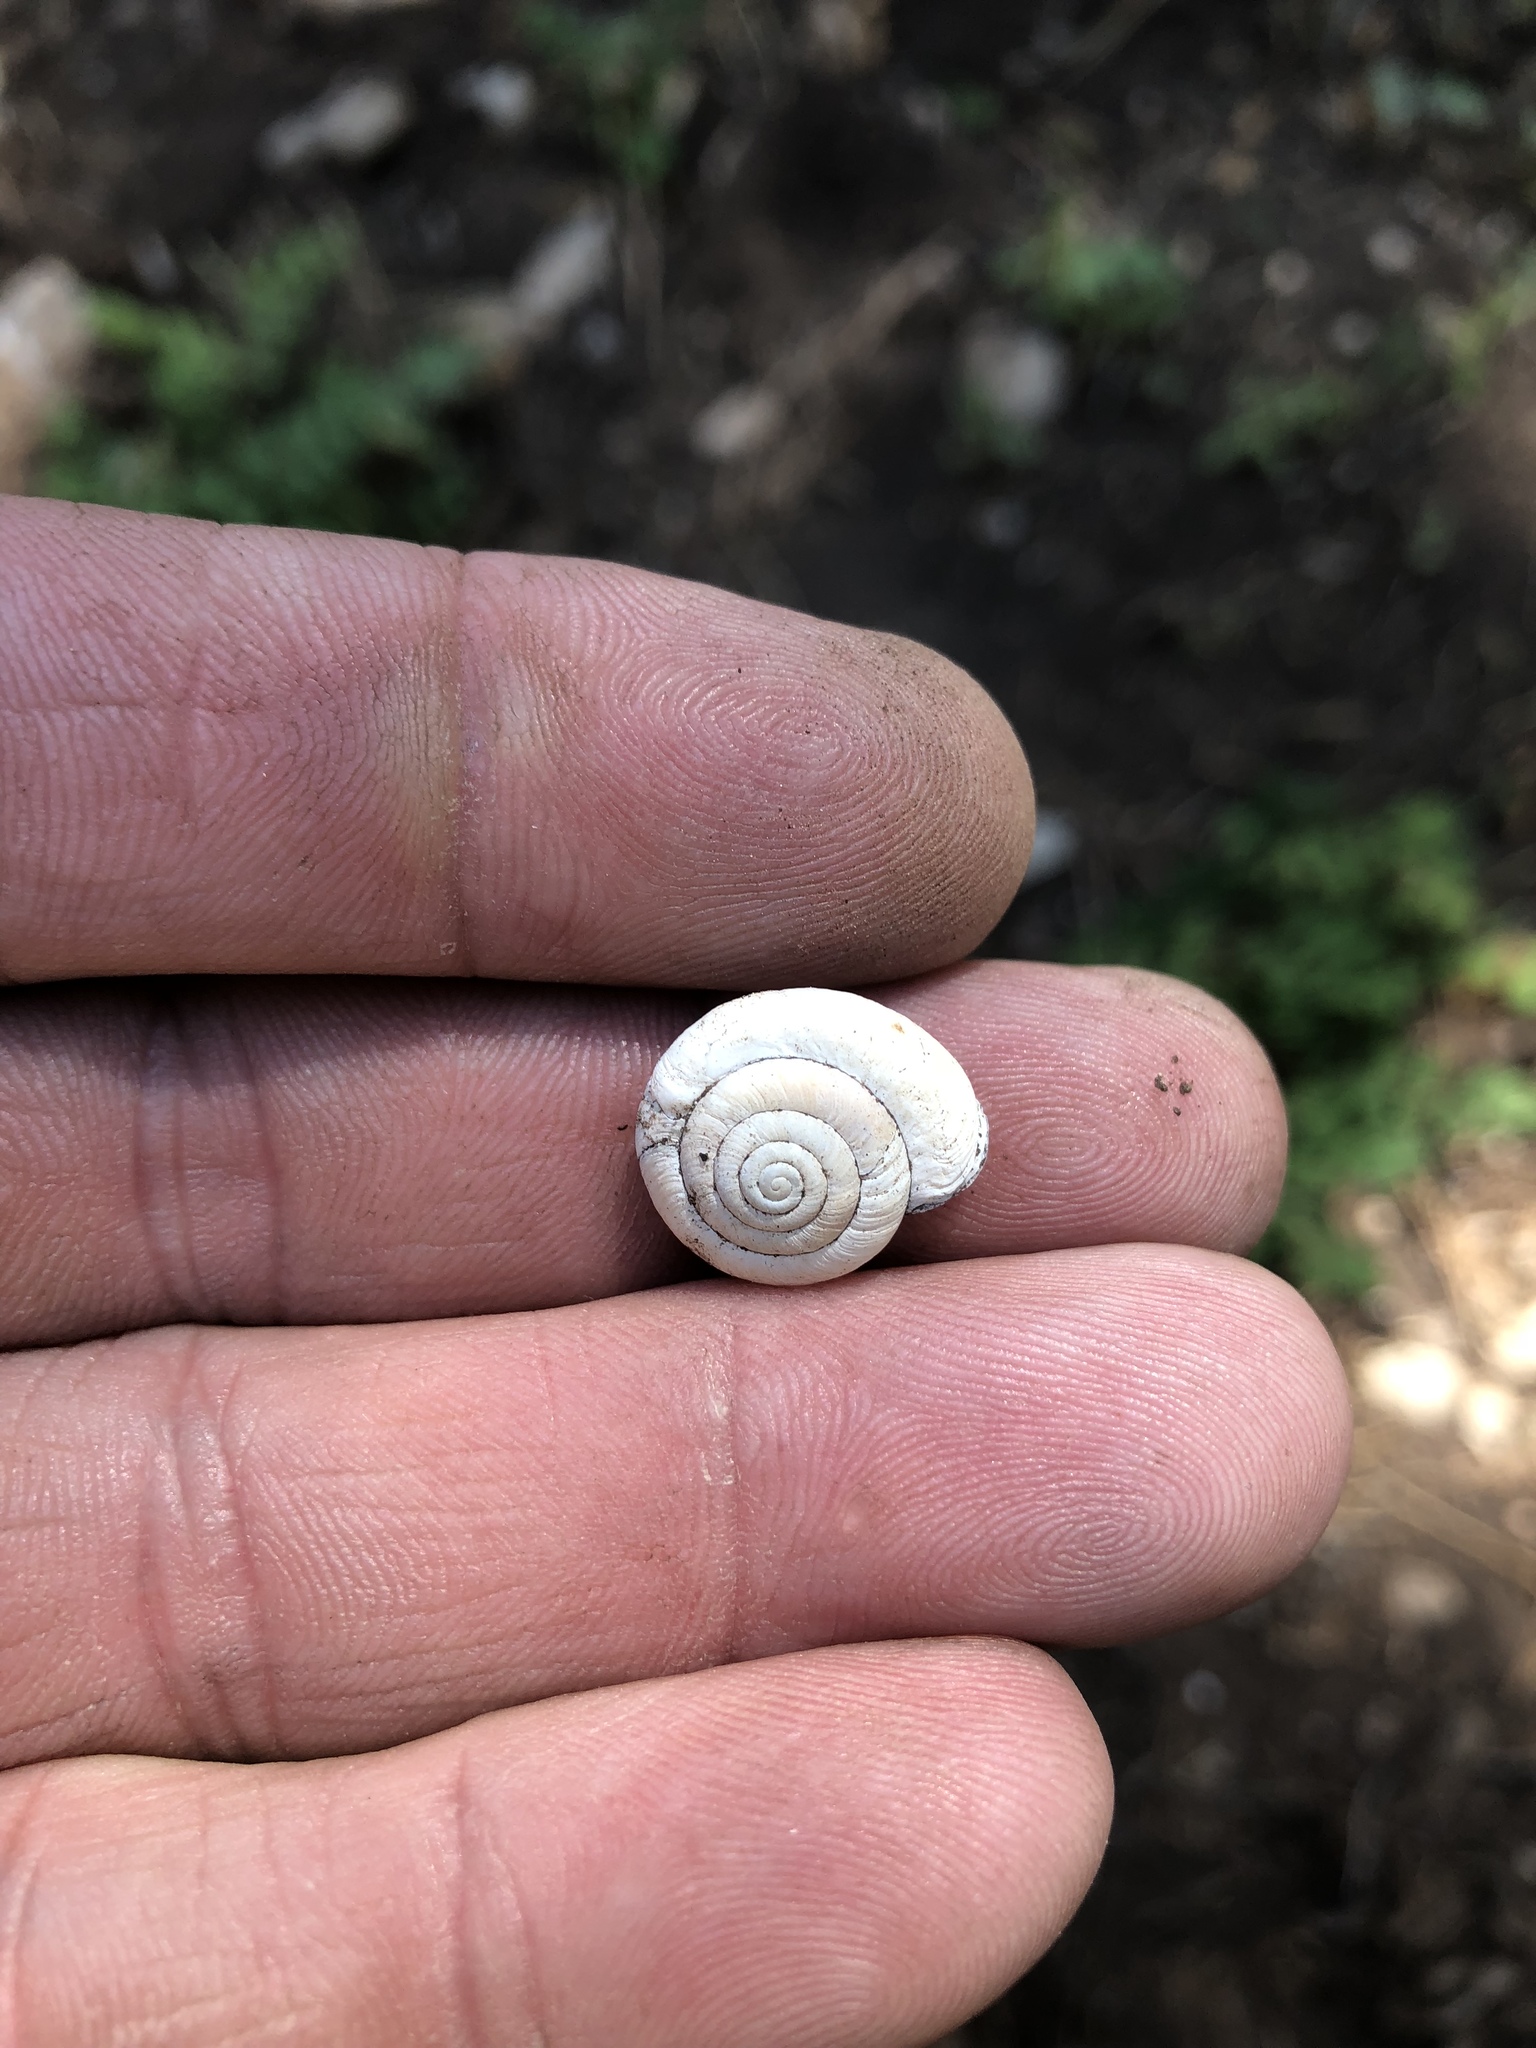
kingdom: Animalia
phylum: Mollusca
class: Gastropoda
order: Stylommatophora
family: Polygyridae
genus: Ashmunella
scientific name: Ashmunella rhyssa
